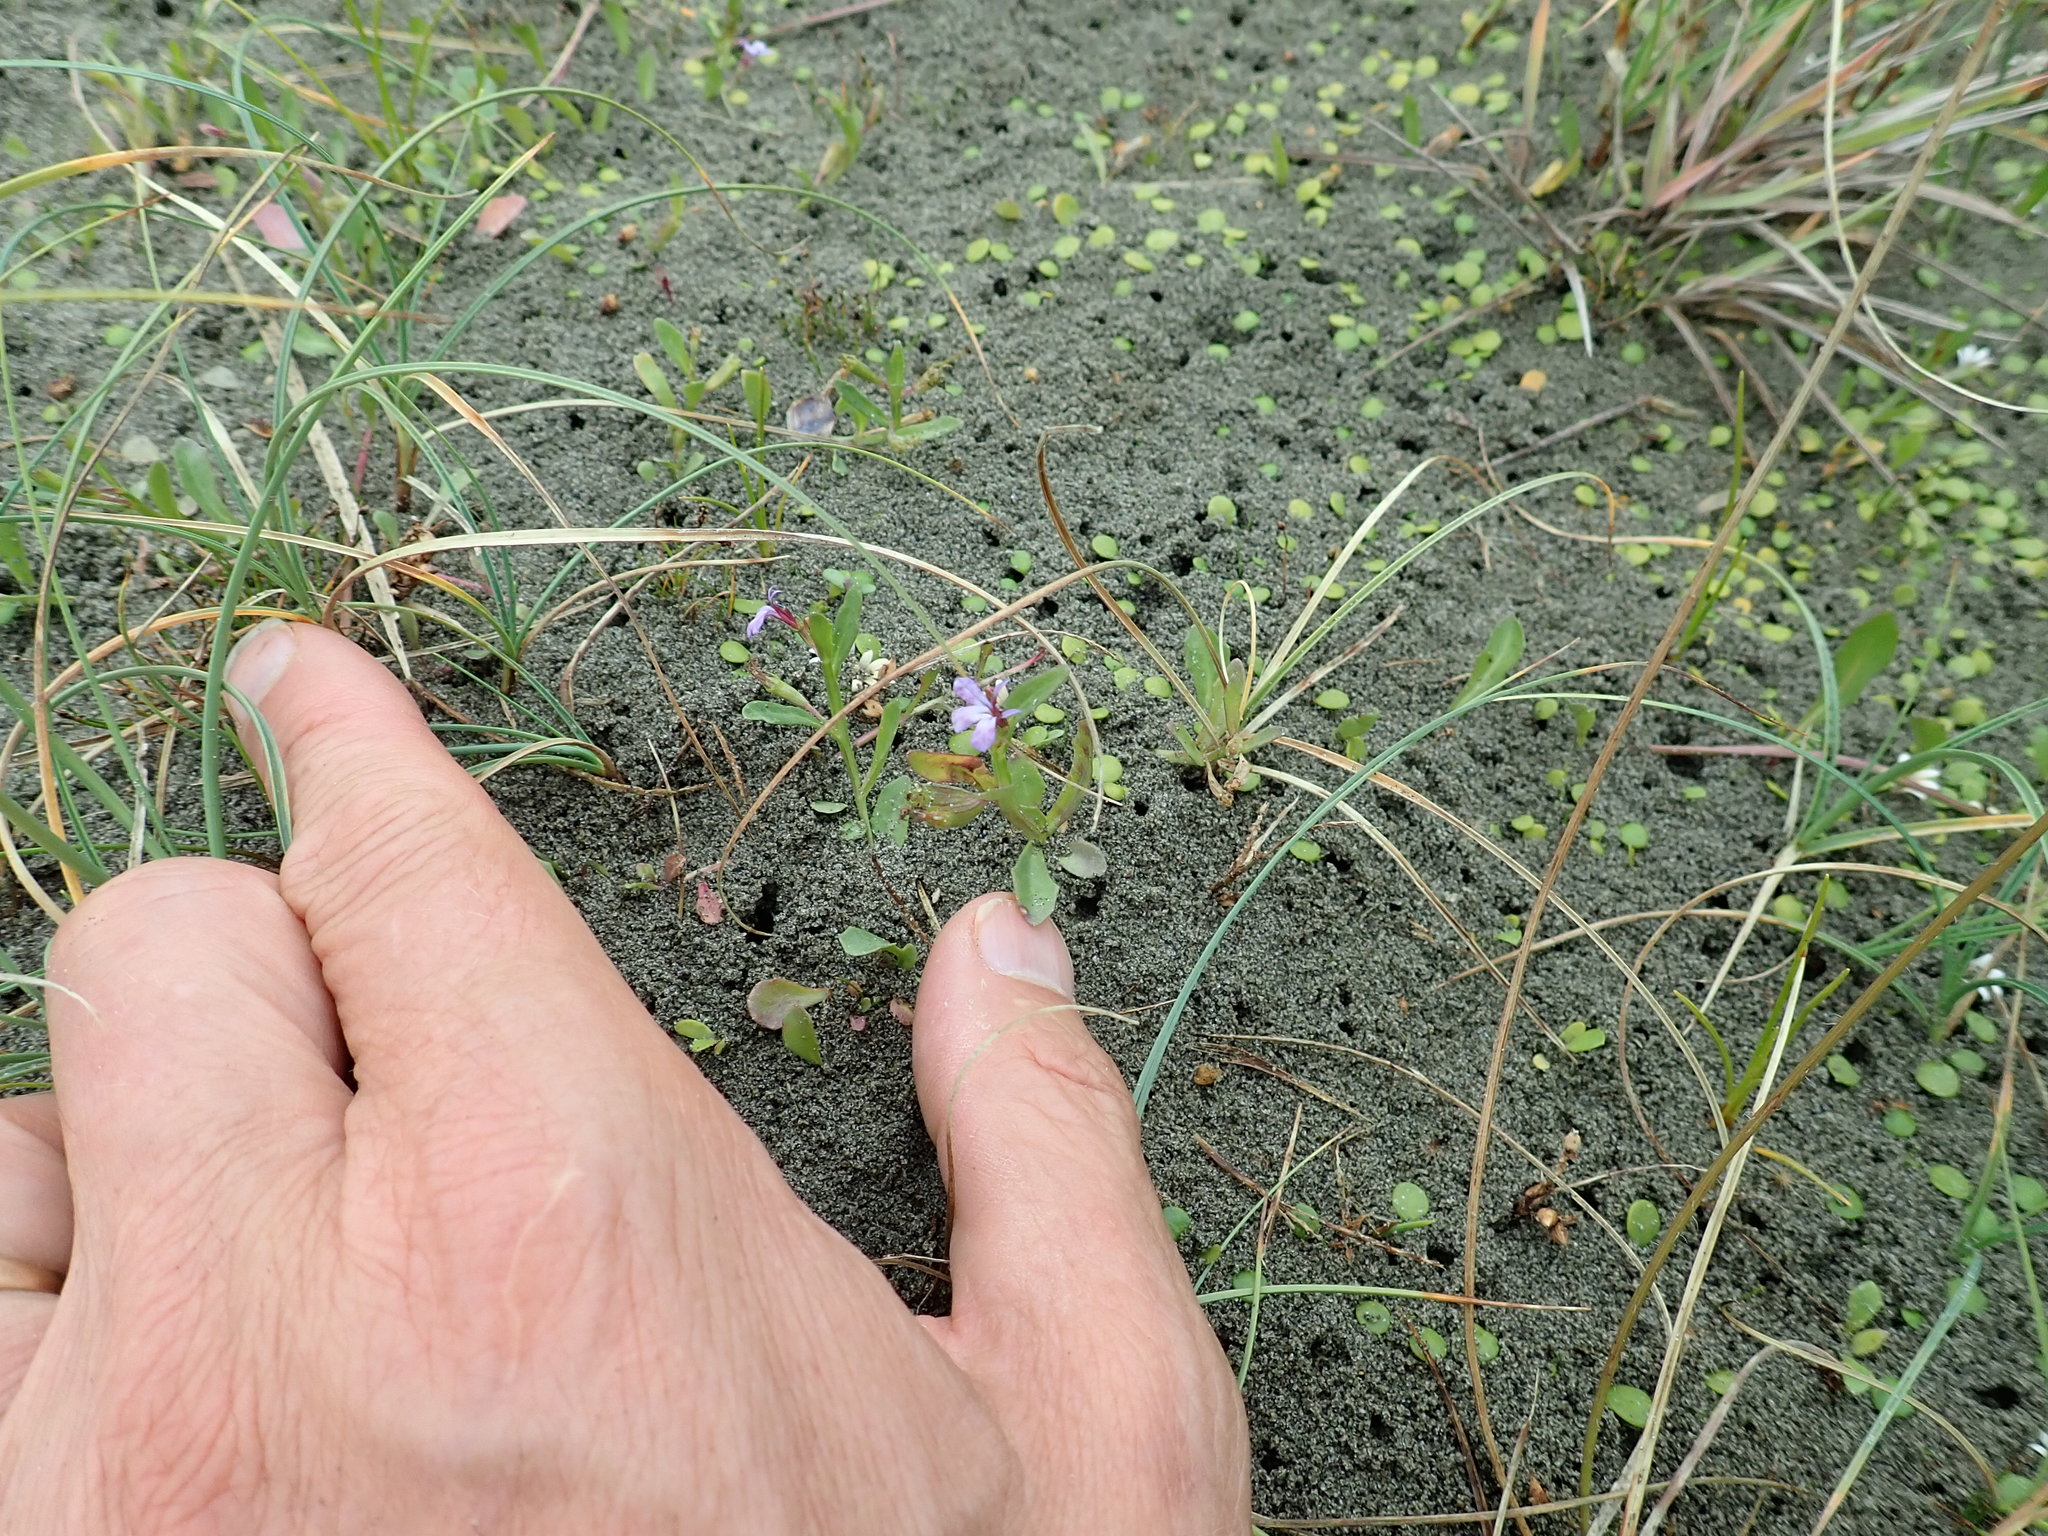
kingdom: Plantae
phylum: Tracheophyta
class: Magnoliopsida
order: Asterales
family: Campanulaceae
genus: Lobelia
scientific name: Lobelia anceps
